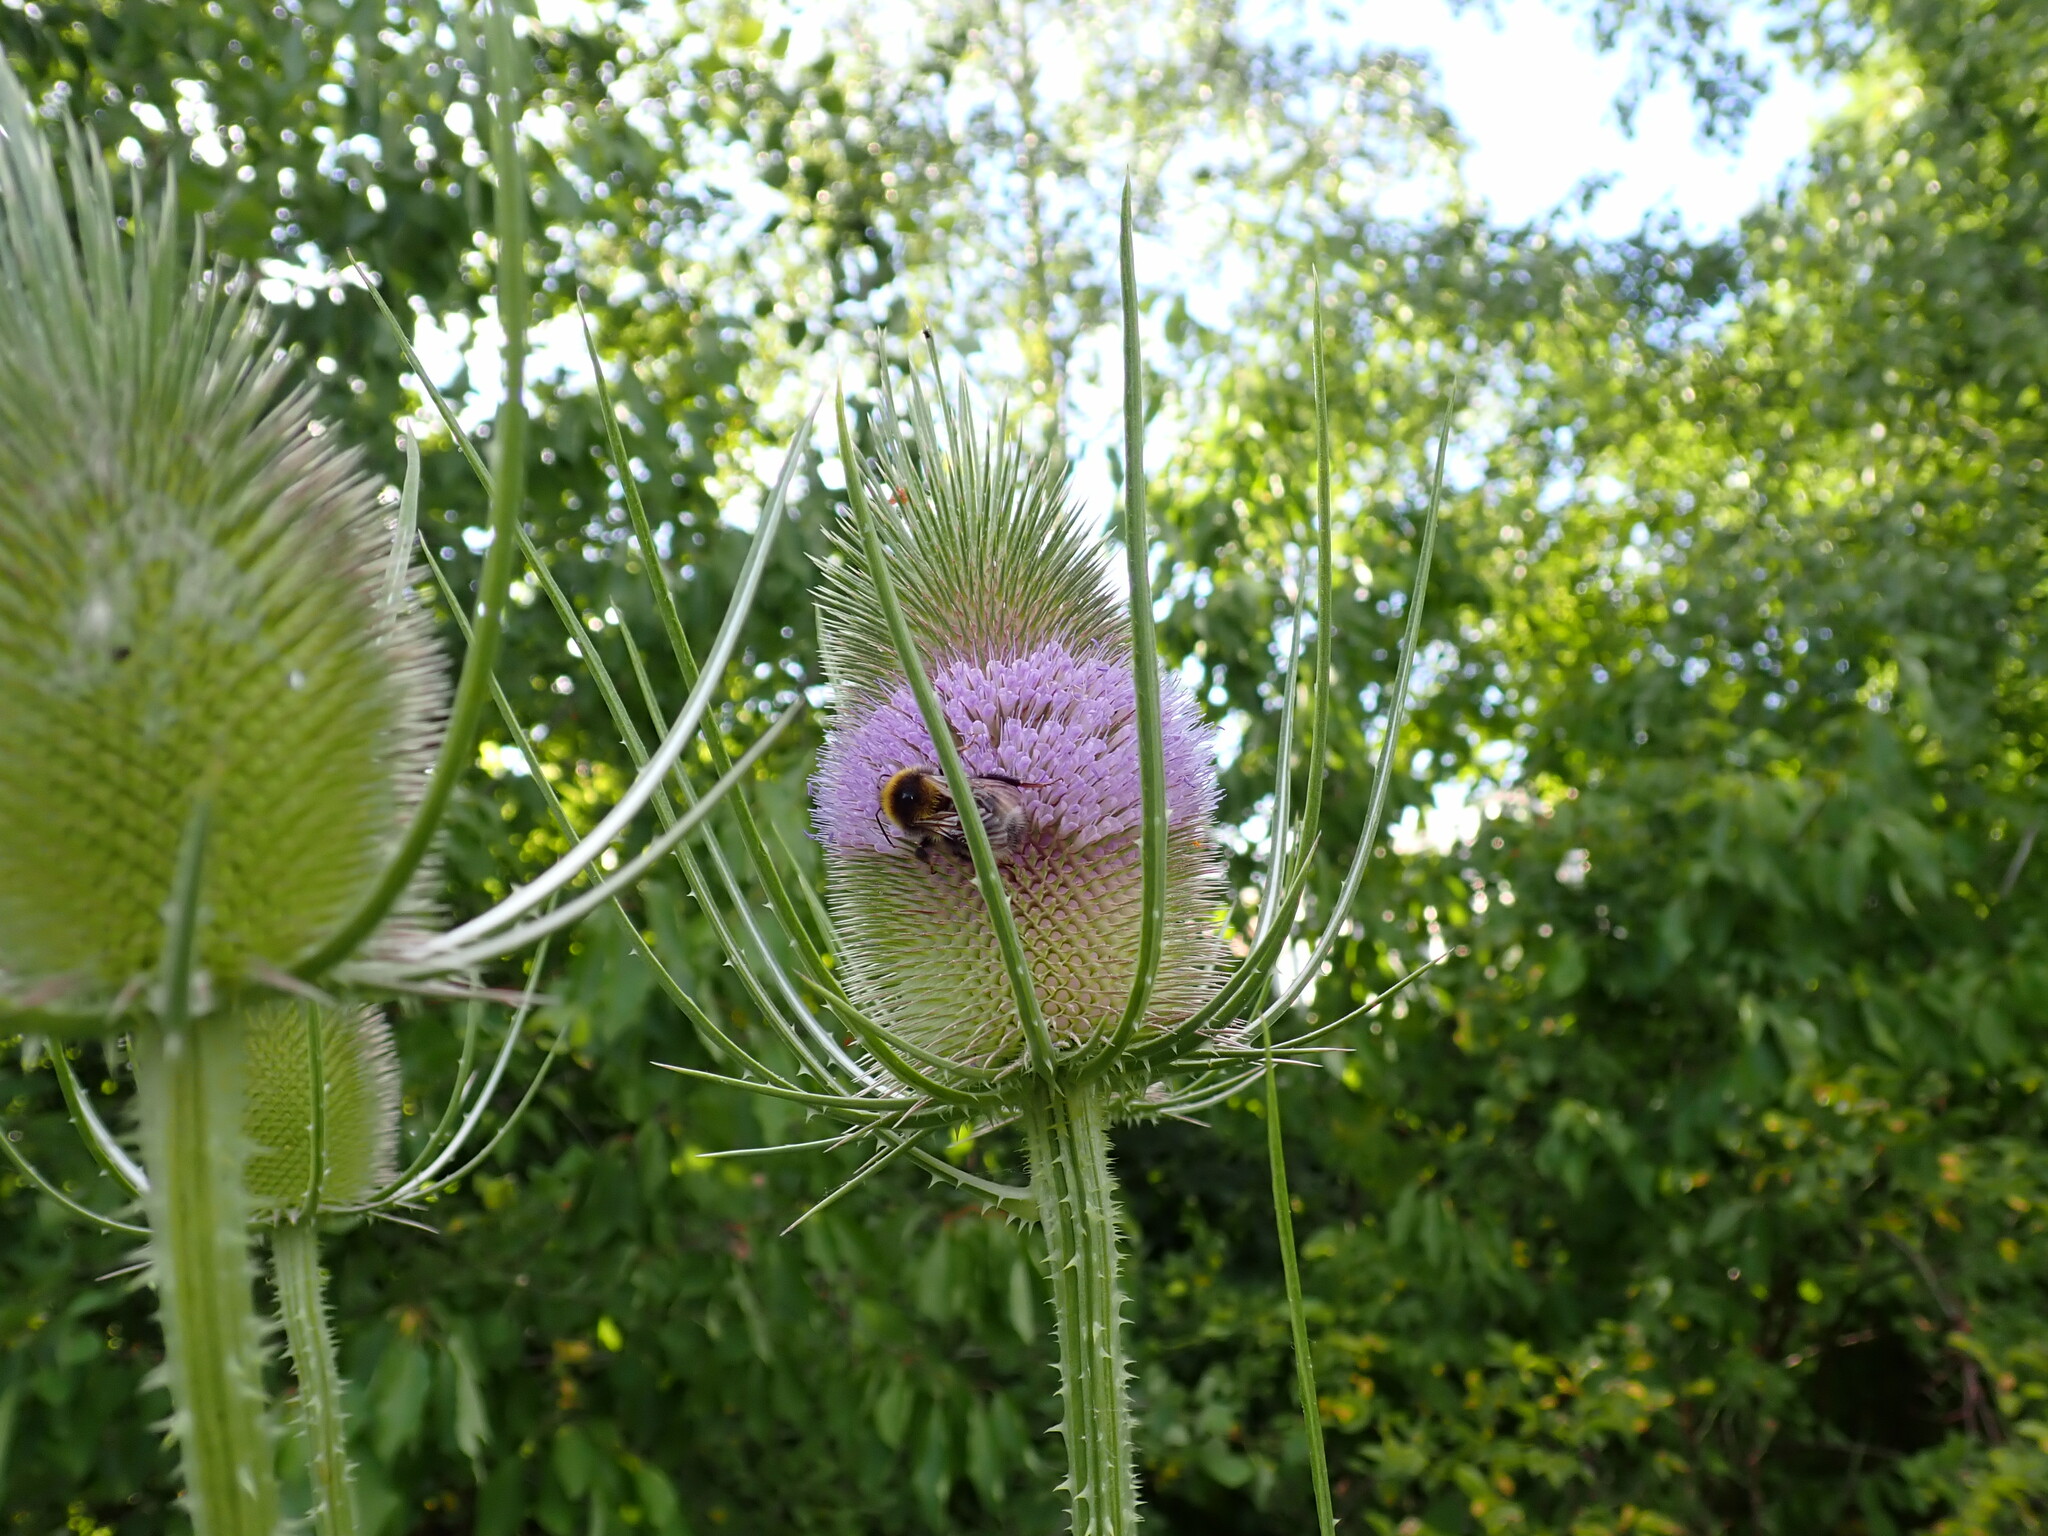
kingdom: Plantae
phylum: Tracheophyta
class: Magnoliopsida
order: Dipsacales
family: Caprifoliaceae
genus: Dipsacus
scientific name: Dipsacus fullonum
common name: Teasel
